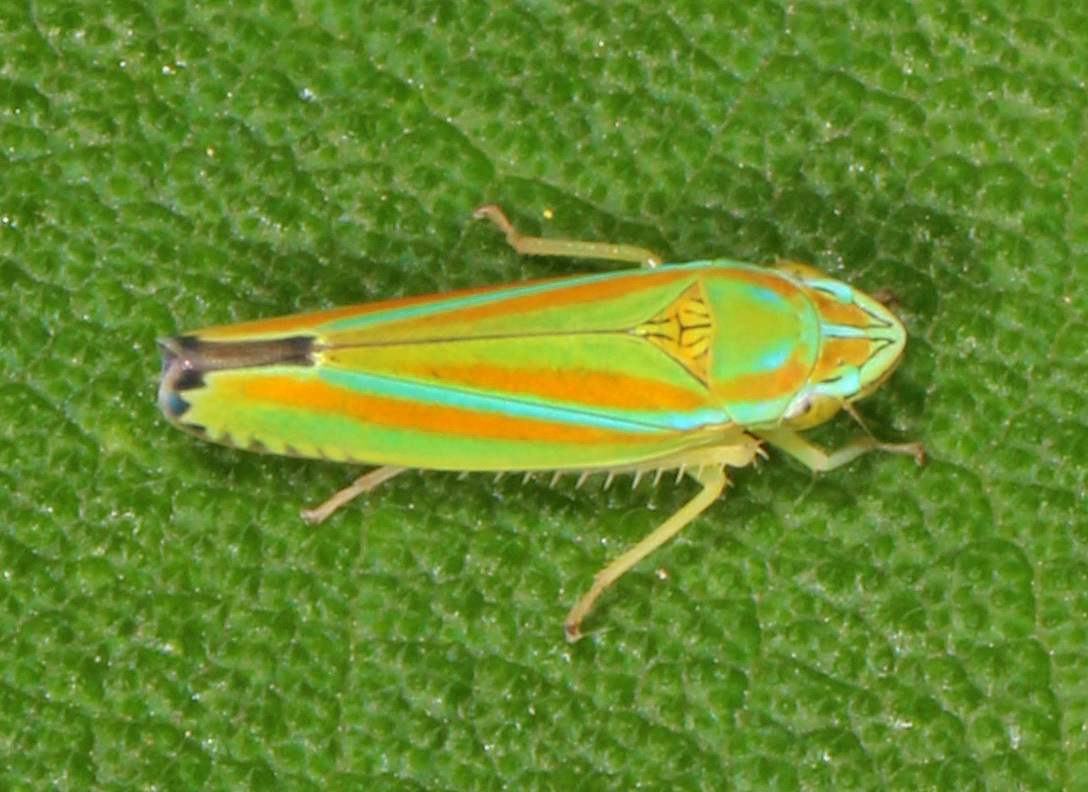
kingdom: Animalia
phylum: Arthropoda
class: Insecta
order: Hemiptera
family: Cicadellidae
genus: Graphocephala
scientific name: Graphocephala versuta
